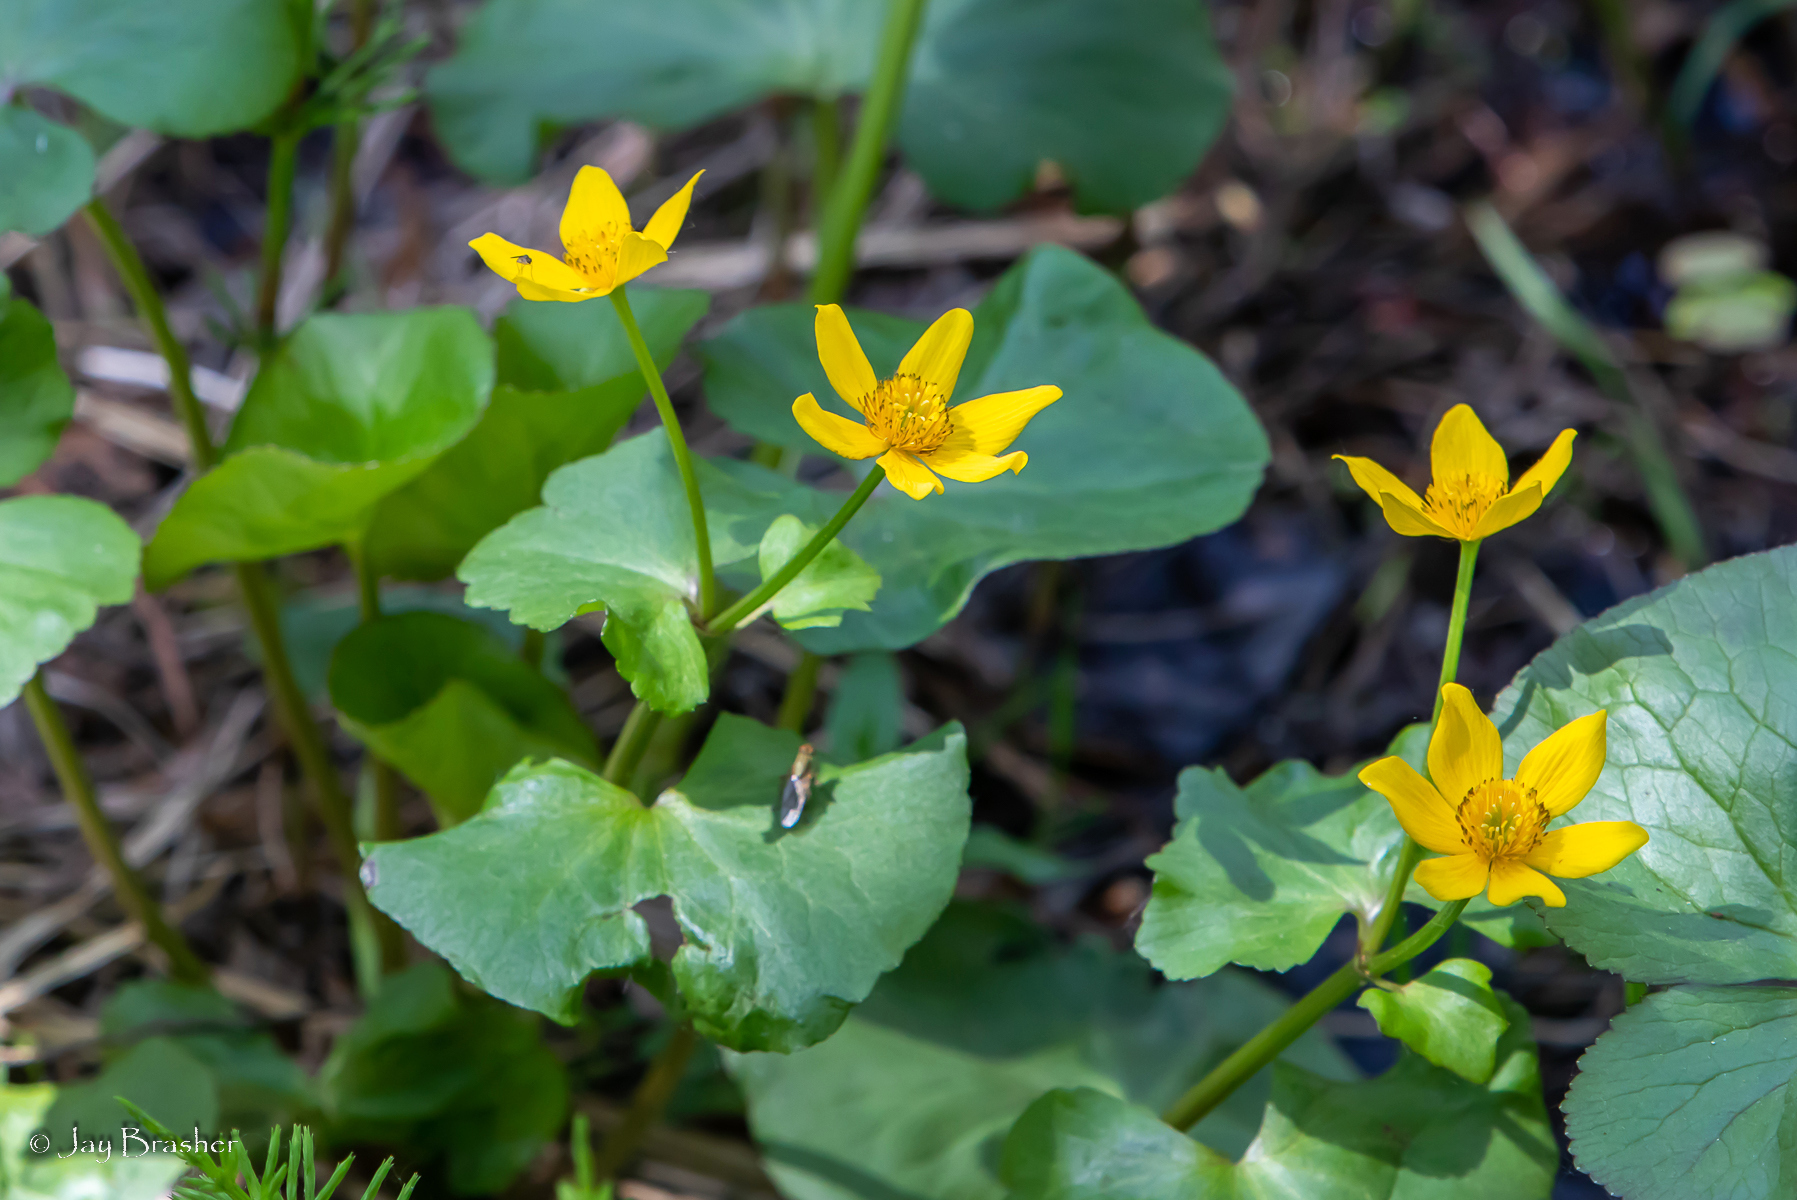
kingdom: Plantae
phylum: Tracheophyta
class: Magnoliopsida
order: Ranunculales
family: Ranunculaceae
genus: Caltha
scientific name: Caltha palustris
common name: Marsh marigold
